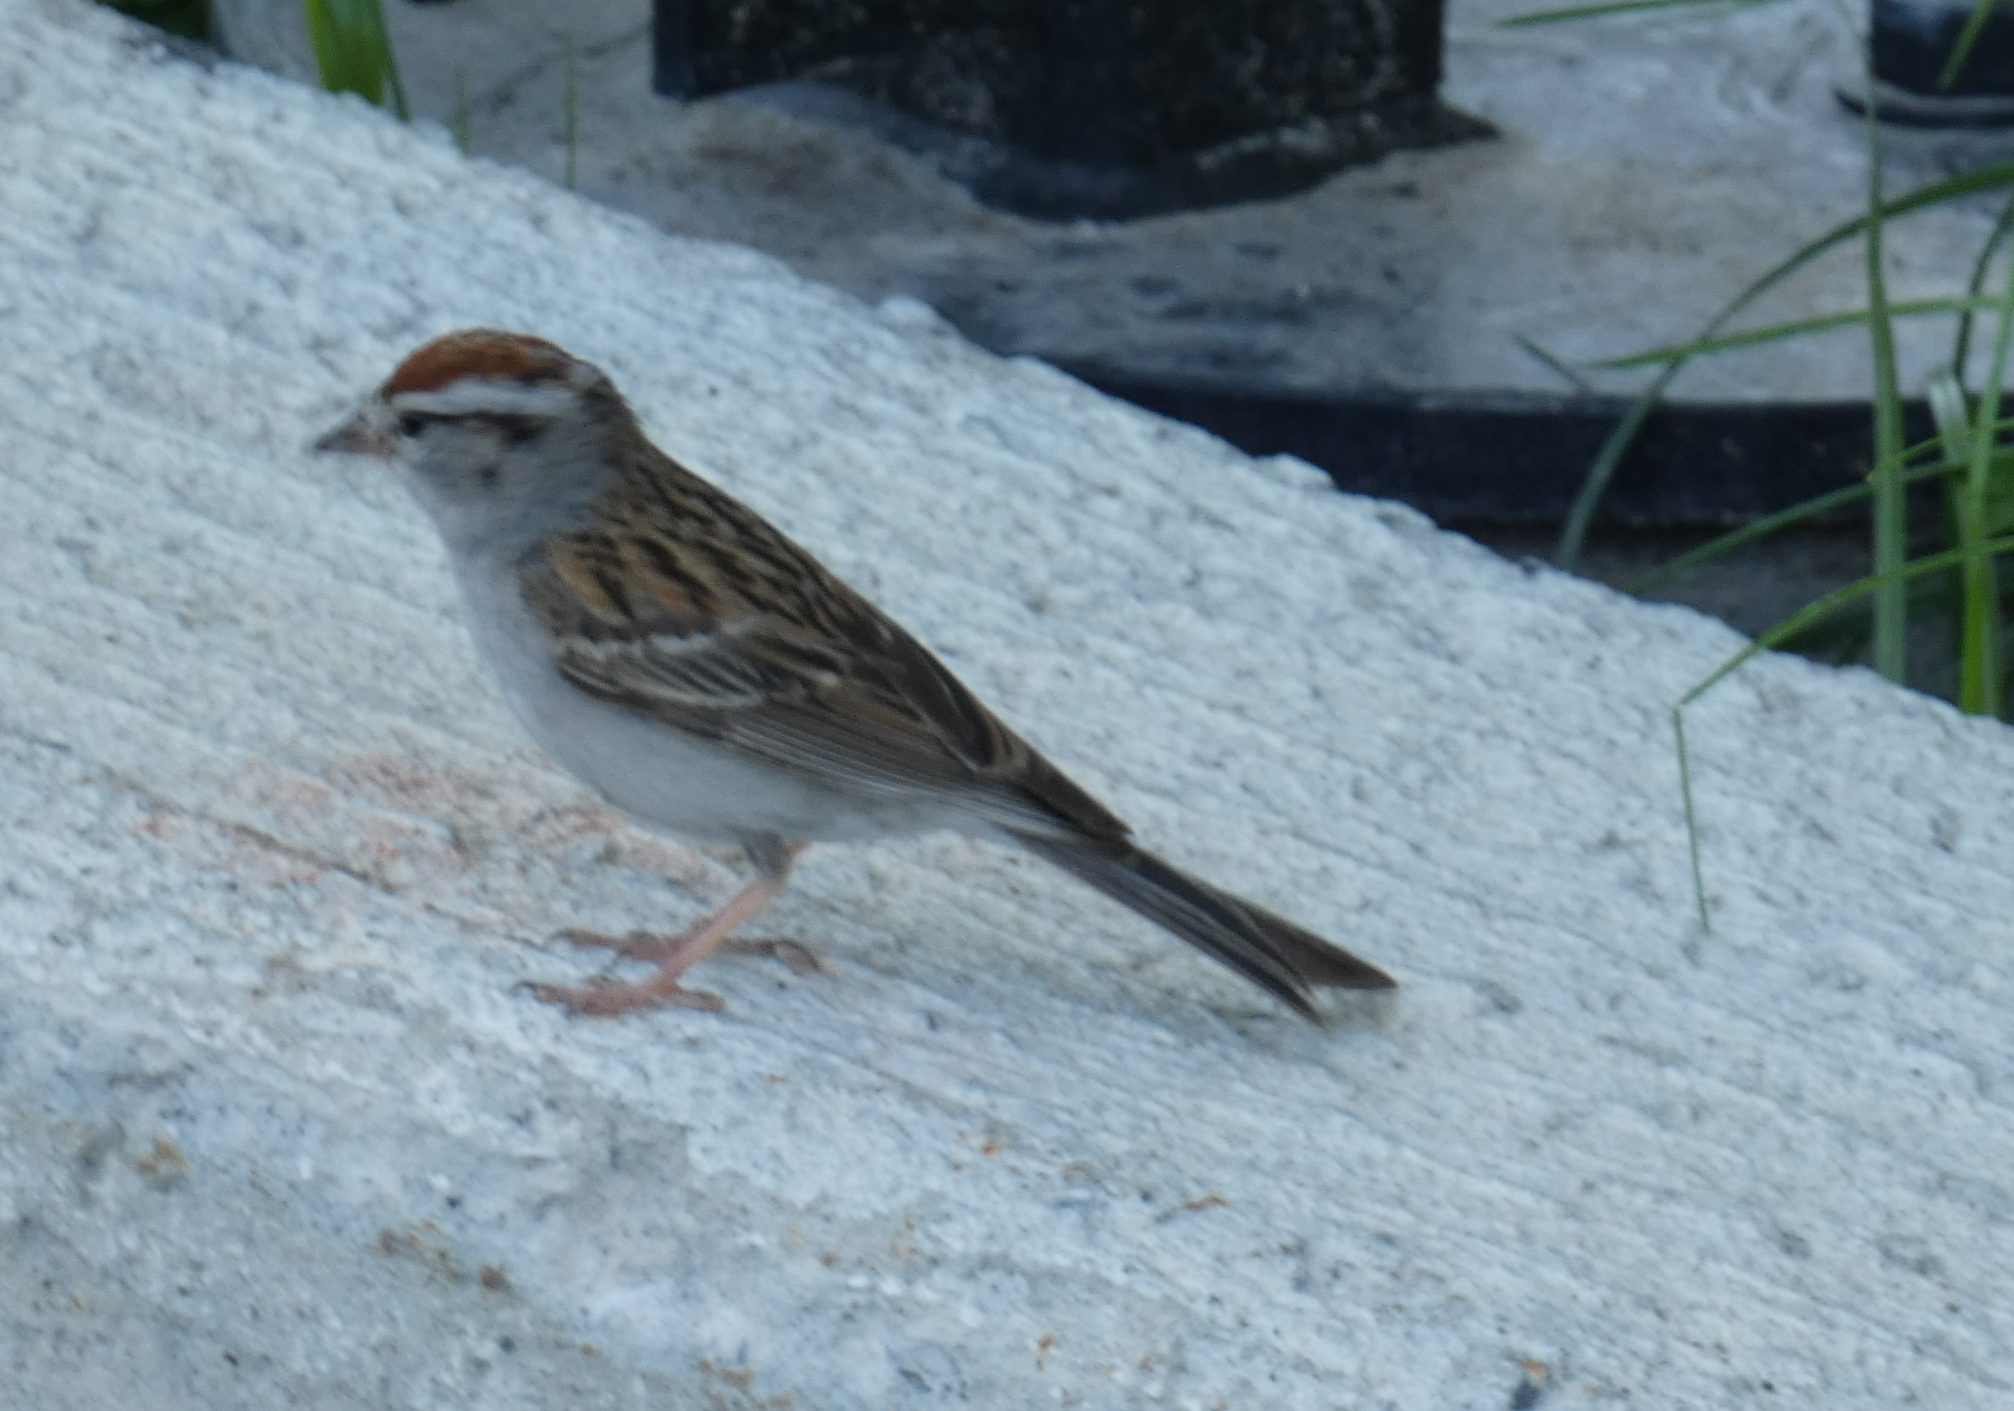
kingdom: Animalia
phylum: Chordata
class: Aves
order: Passeriformes
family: Passerellidae
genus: Spizella
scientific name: Spizella passerina
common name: Chipping sparrow
